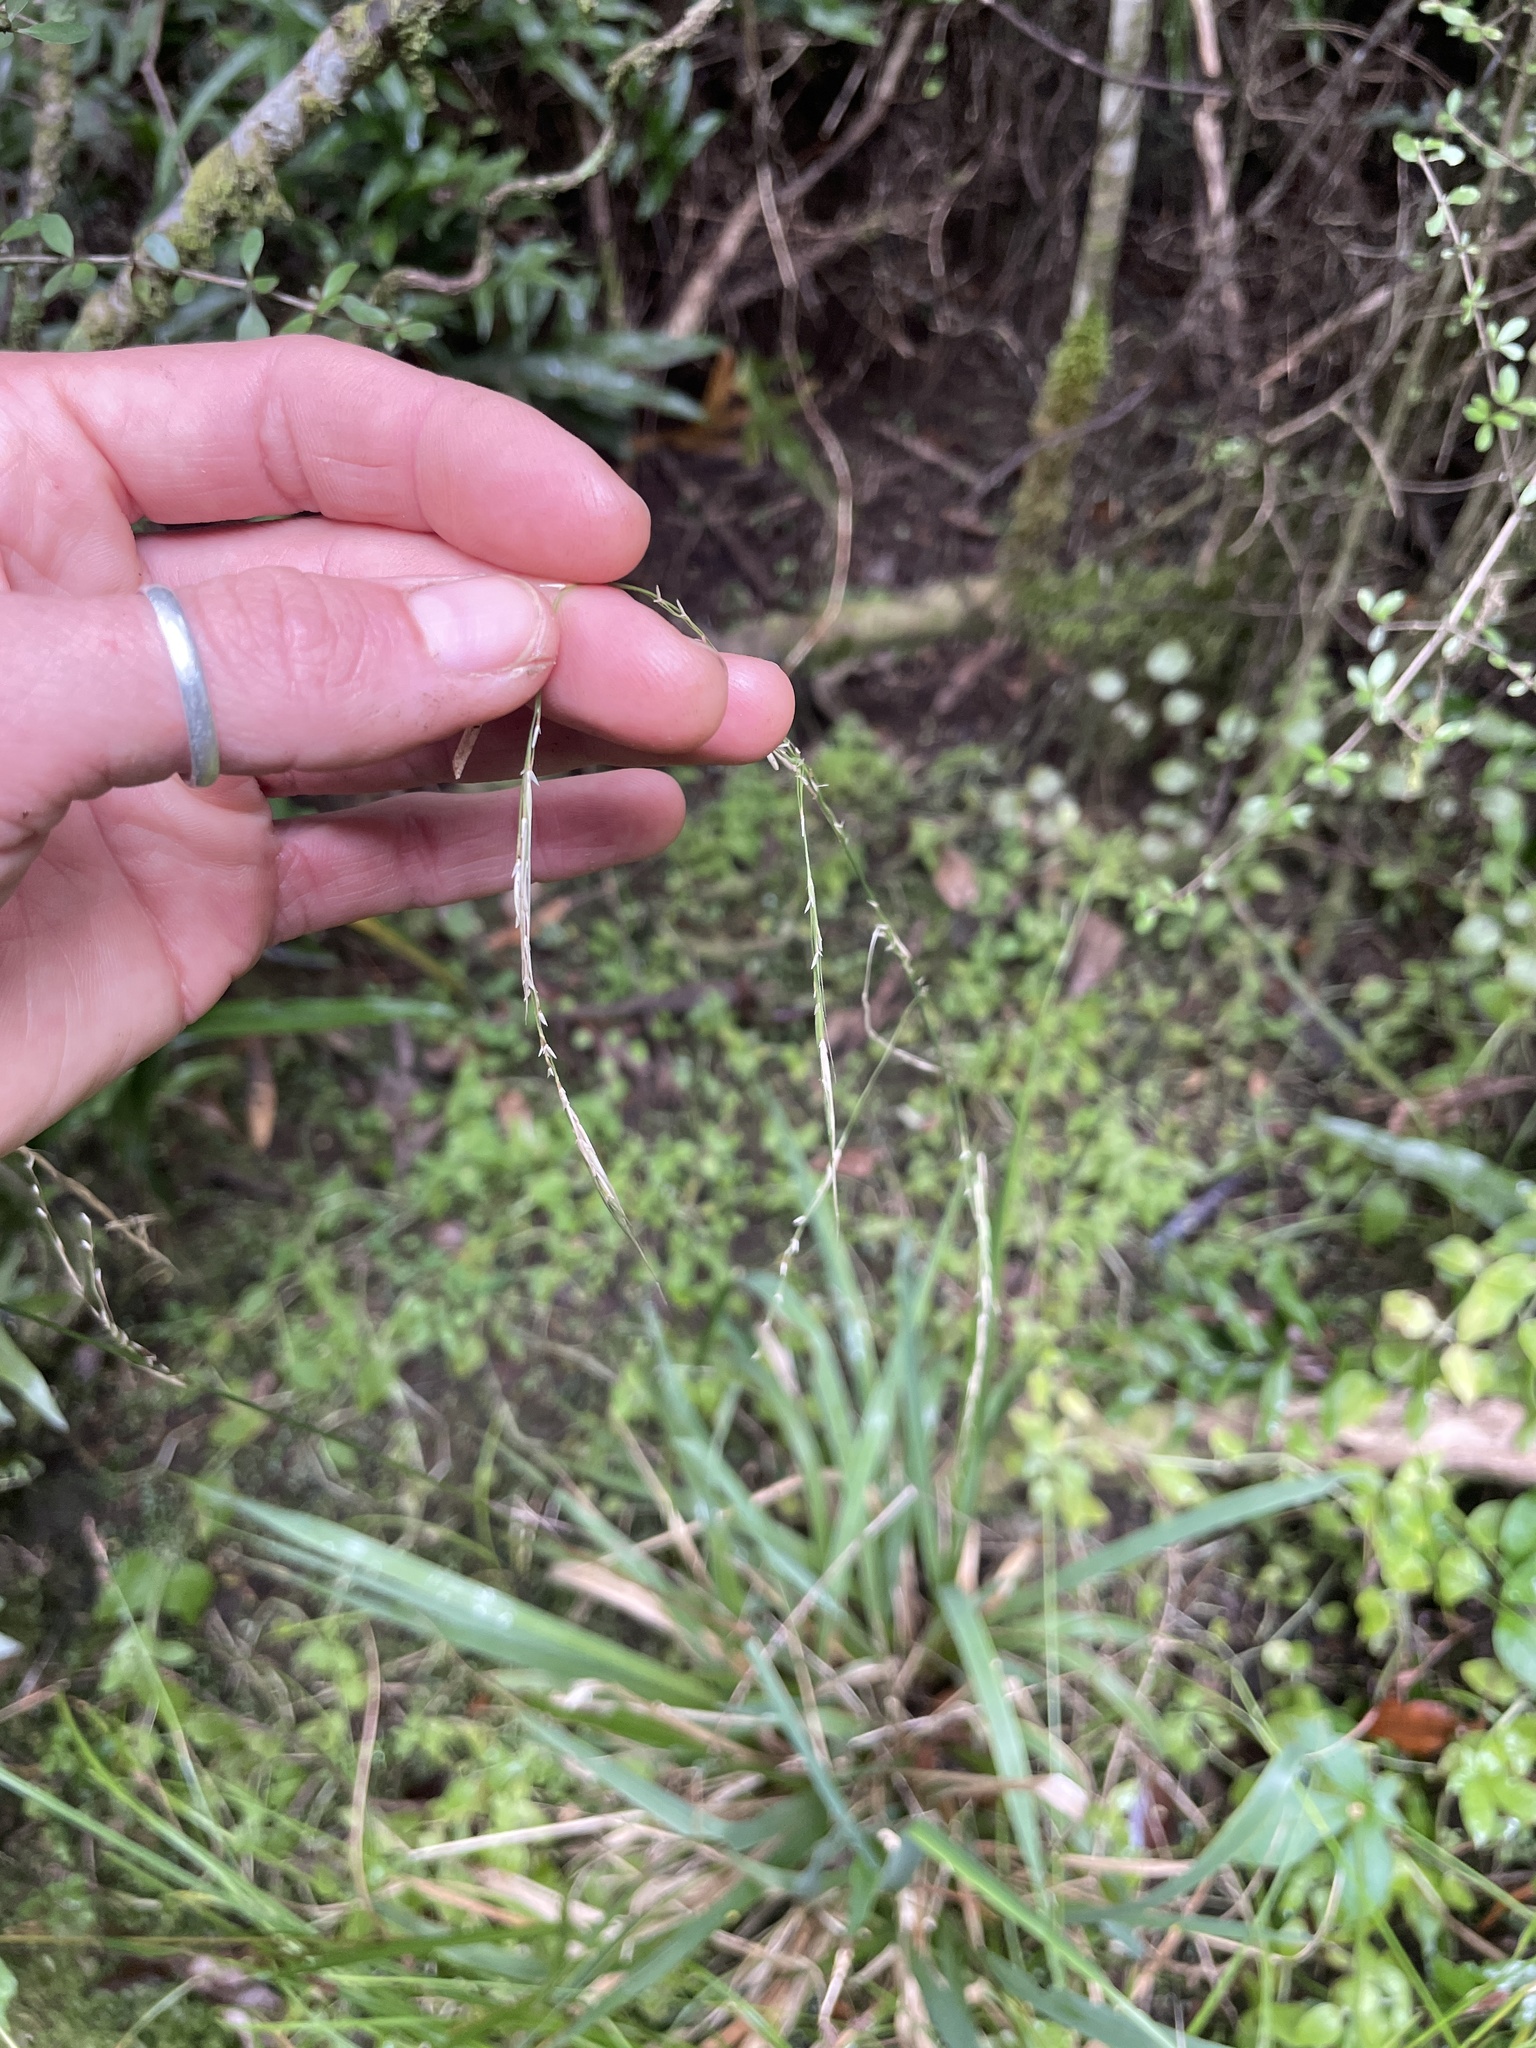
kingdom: Plantae
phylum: Tracheophyta
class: Liliopsida
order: Poales
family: Poaceae
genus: Ehrharta
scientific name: Ehrharta diplax
